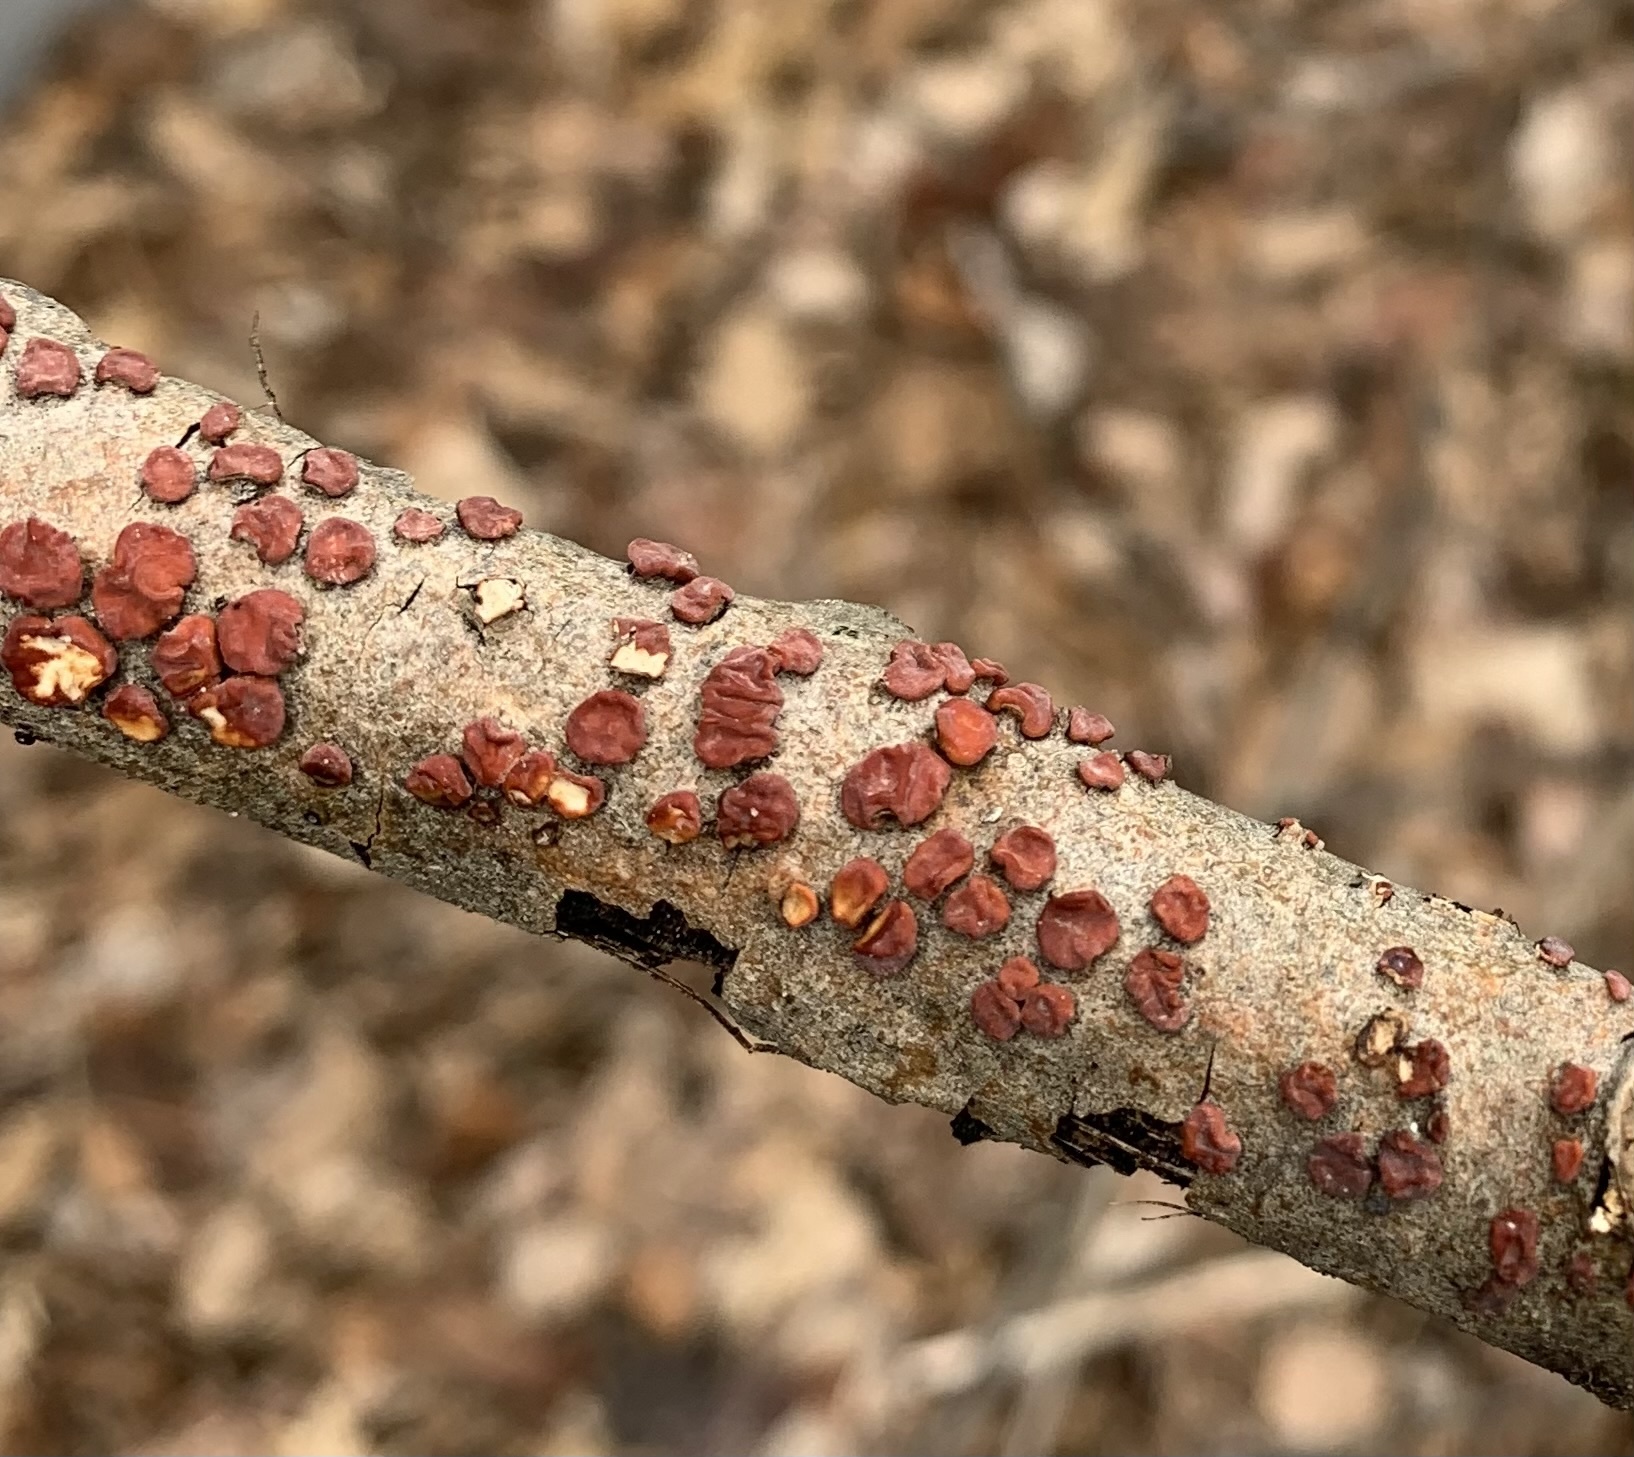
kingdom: Fungi
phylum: Basidiomycota
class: Agaricomycetes
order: Russulales
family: Peniophoraceae
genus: Peniophora
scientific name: Peniophora rufa
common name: Red tree brain fungus
